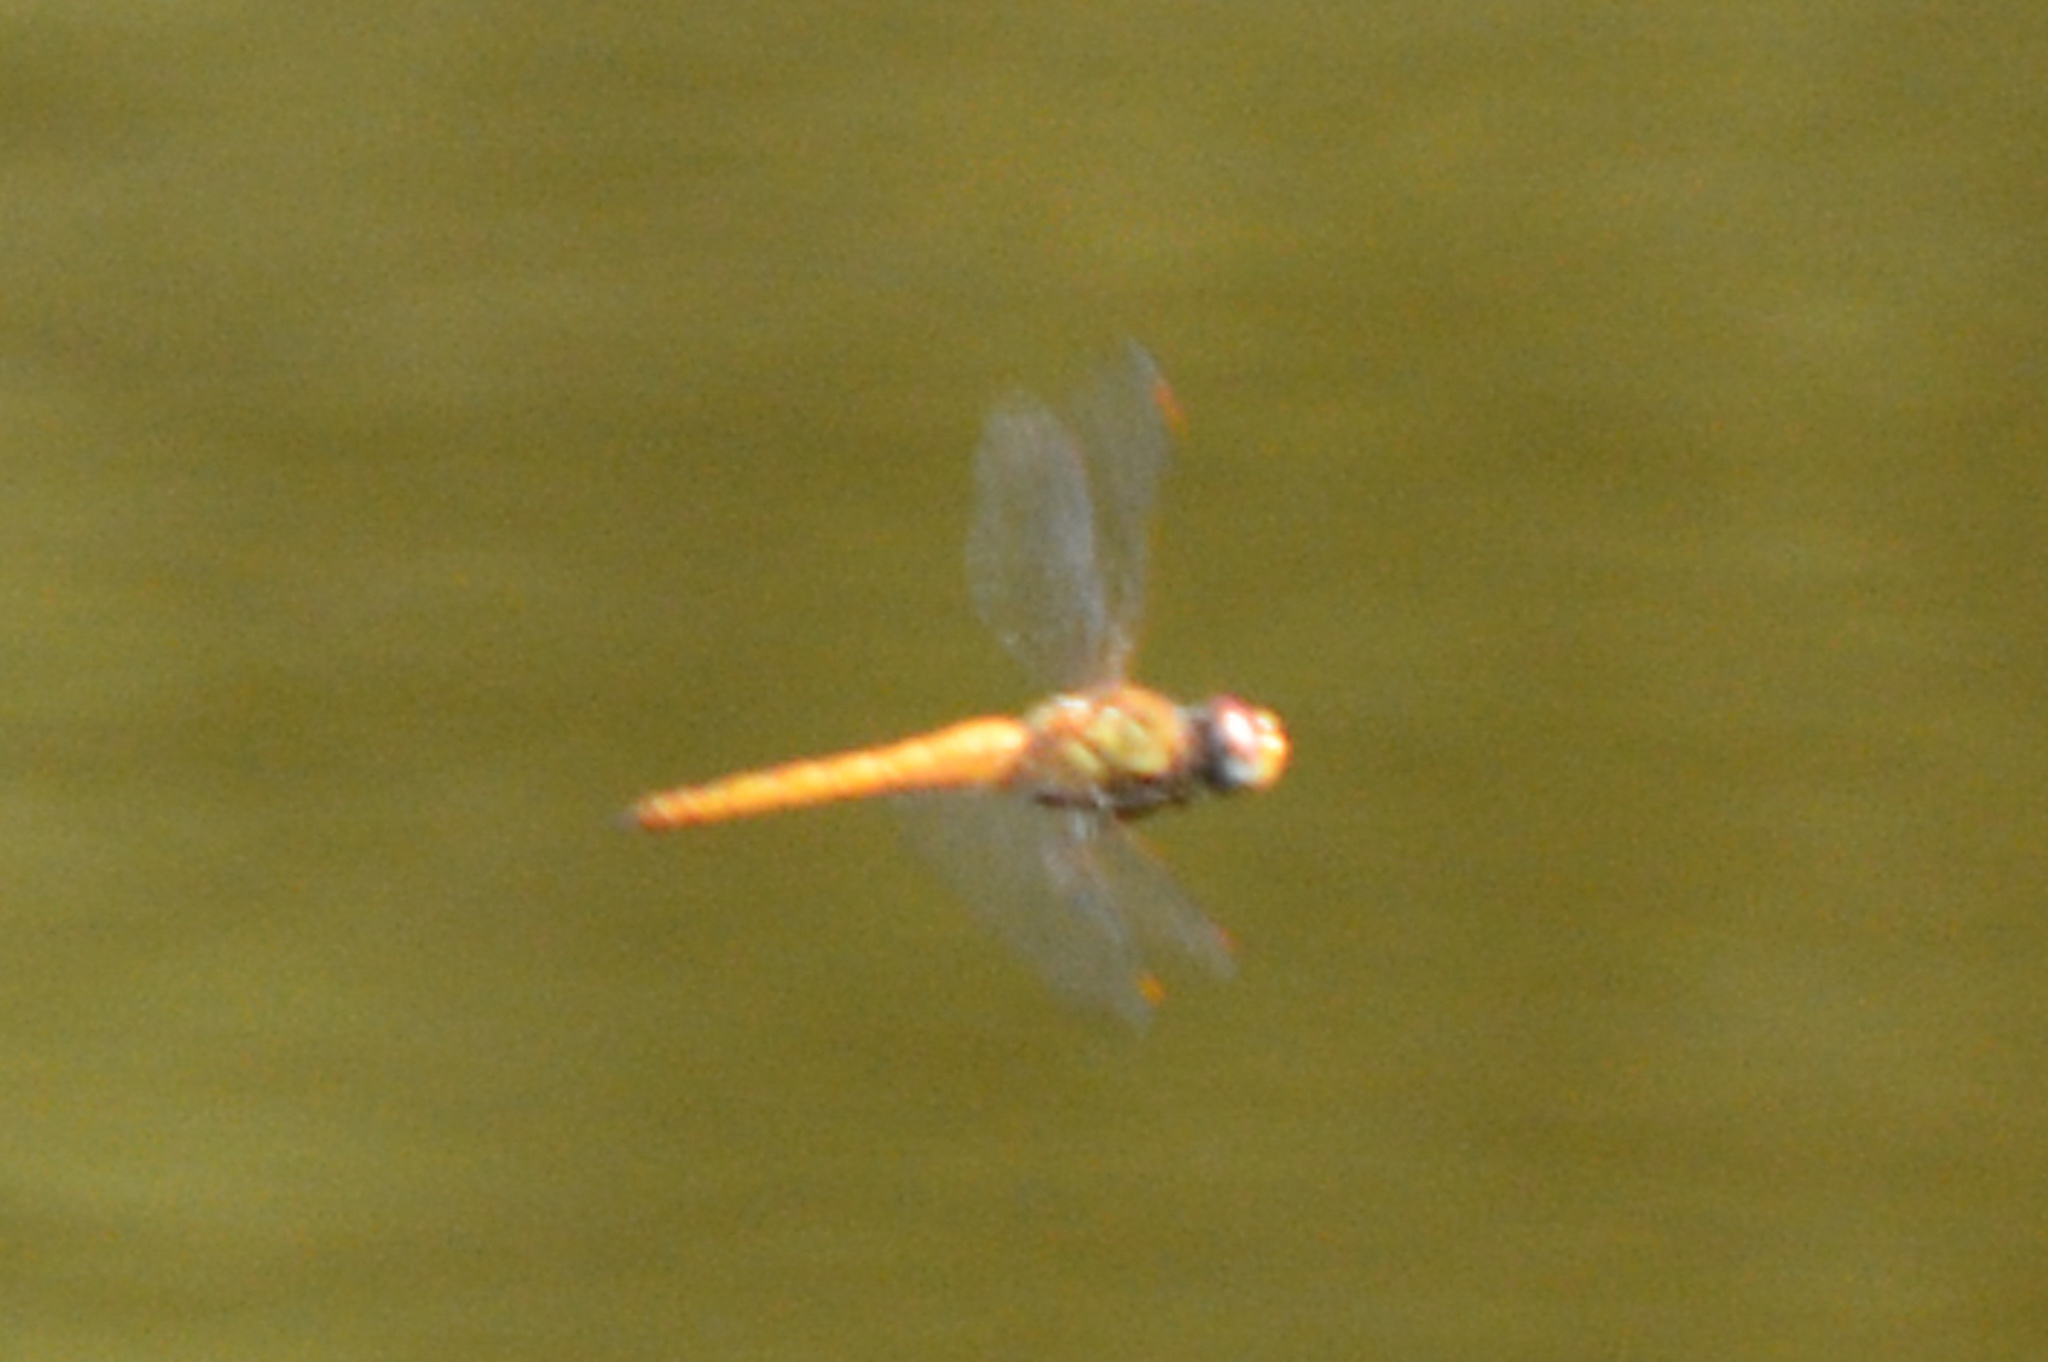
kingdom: Animalia
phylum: Arthropoda
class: Insecta
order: Odonata
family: Libellulidae
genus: Pantala
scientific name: Pantala flavescens
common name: Wandering glider
